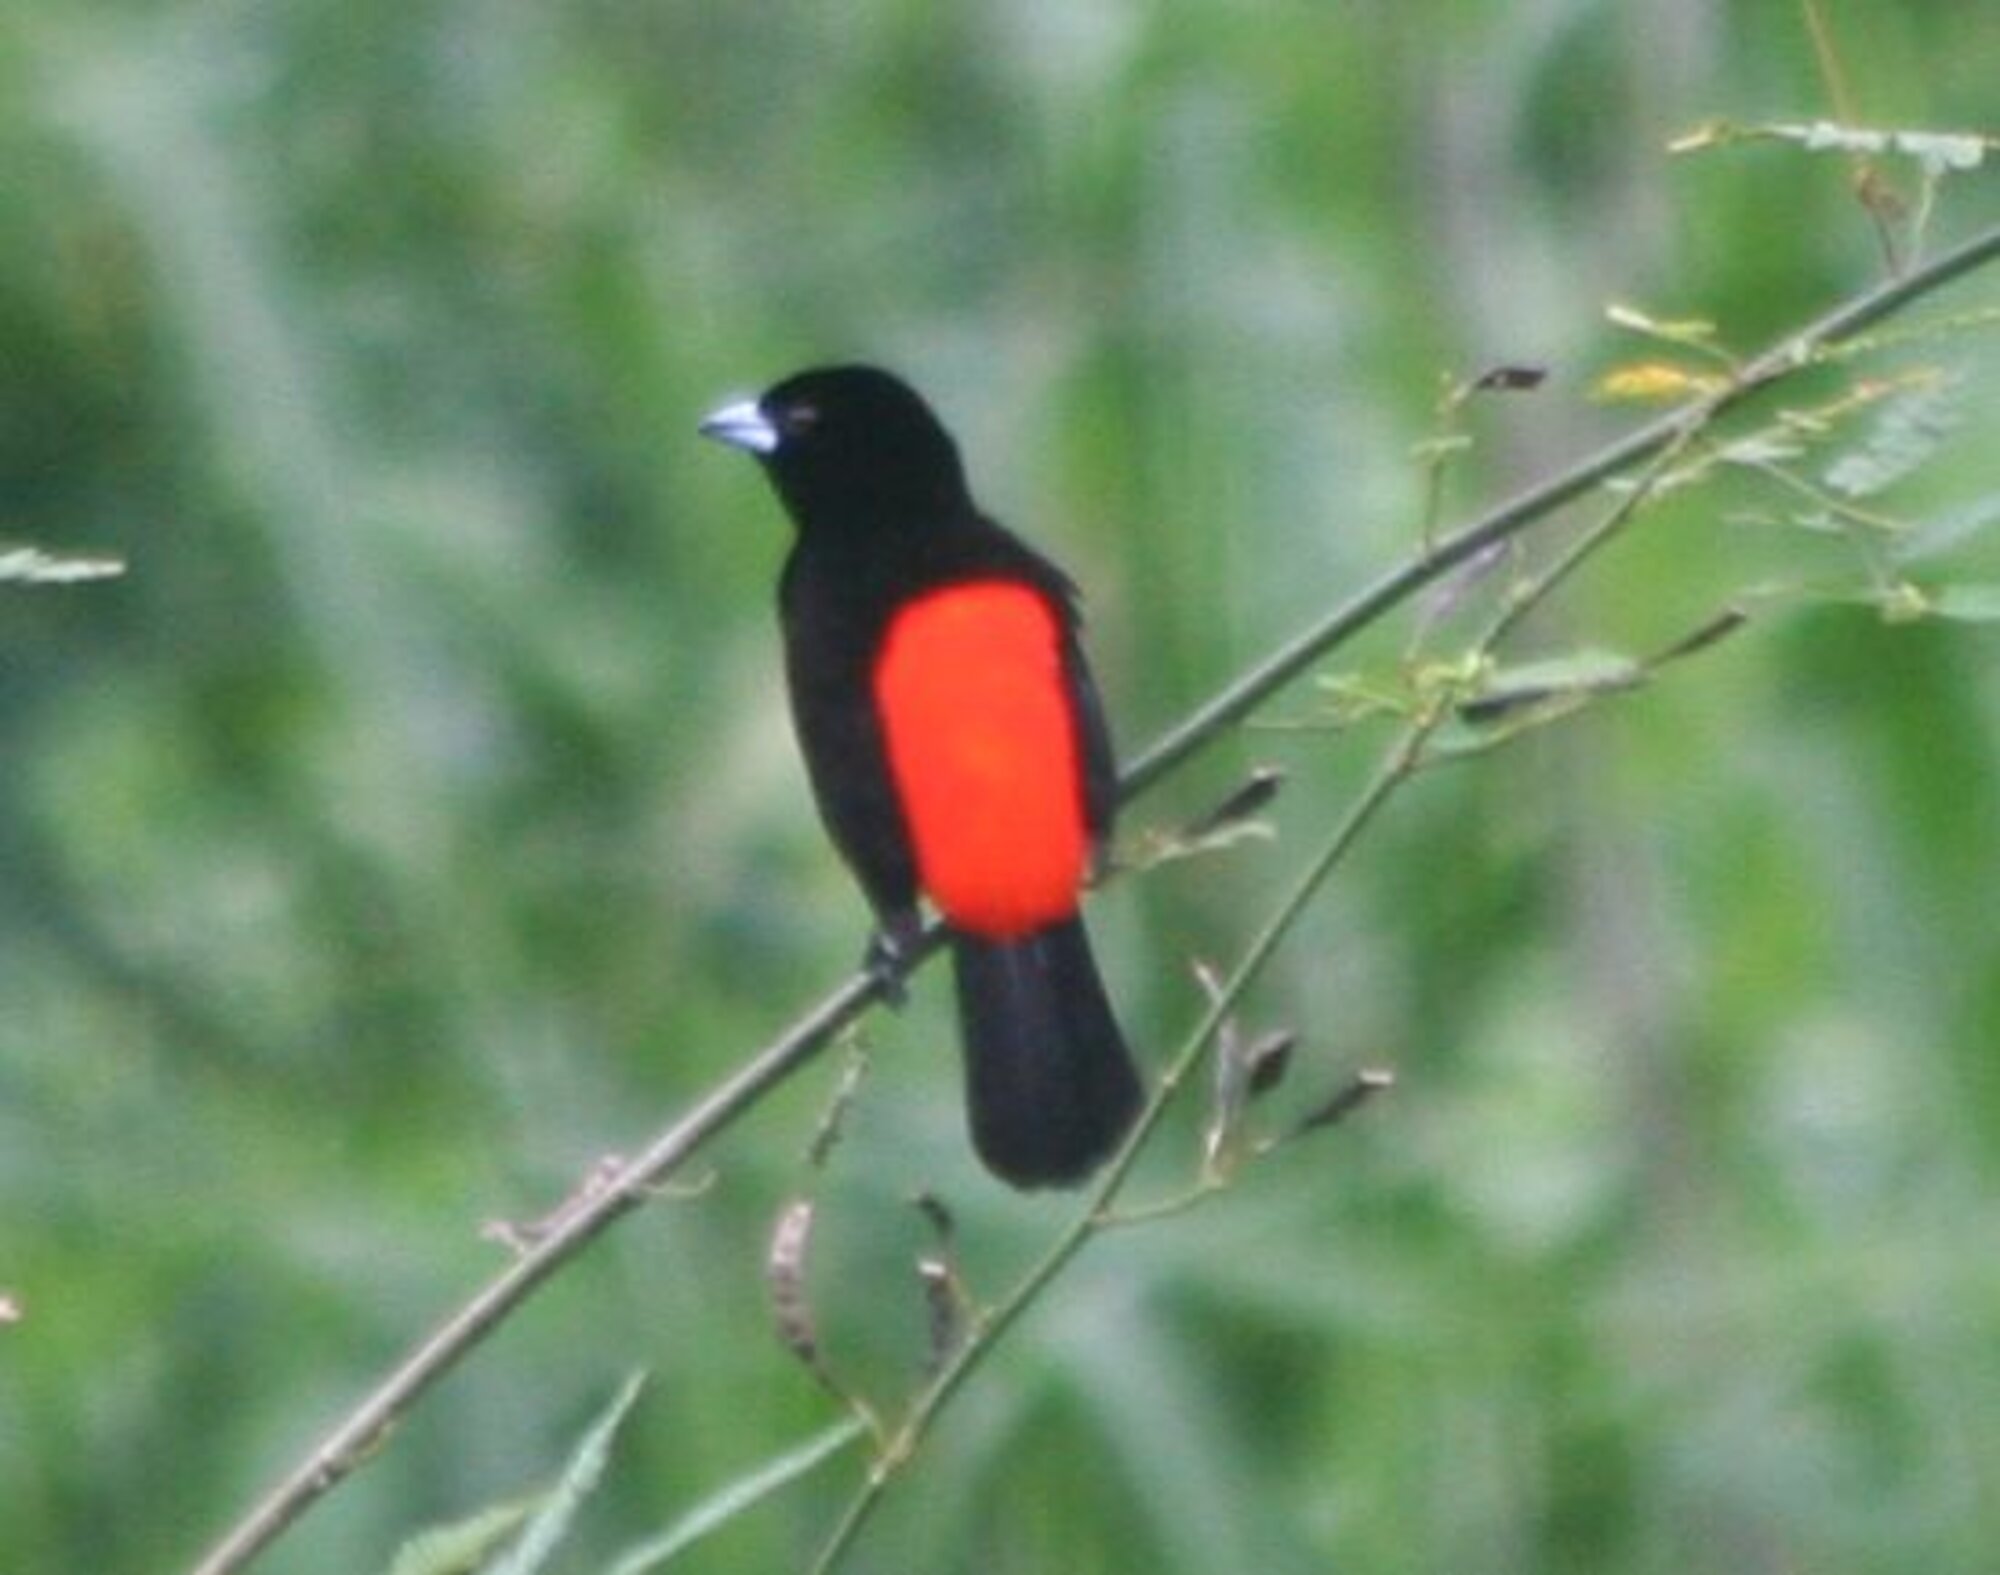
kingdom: Animalia
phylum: Chordata
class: Aves
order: Passeriformes
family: Thraupidae
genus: Ramphocelus
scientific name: Ramphocelus passerinii
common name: Passerini's tanager
